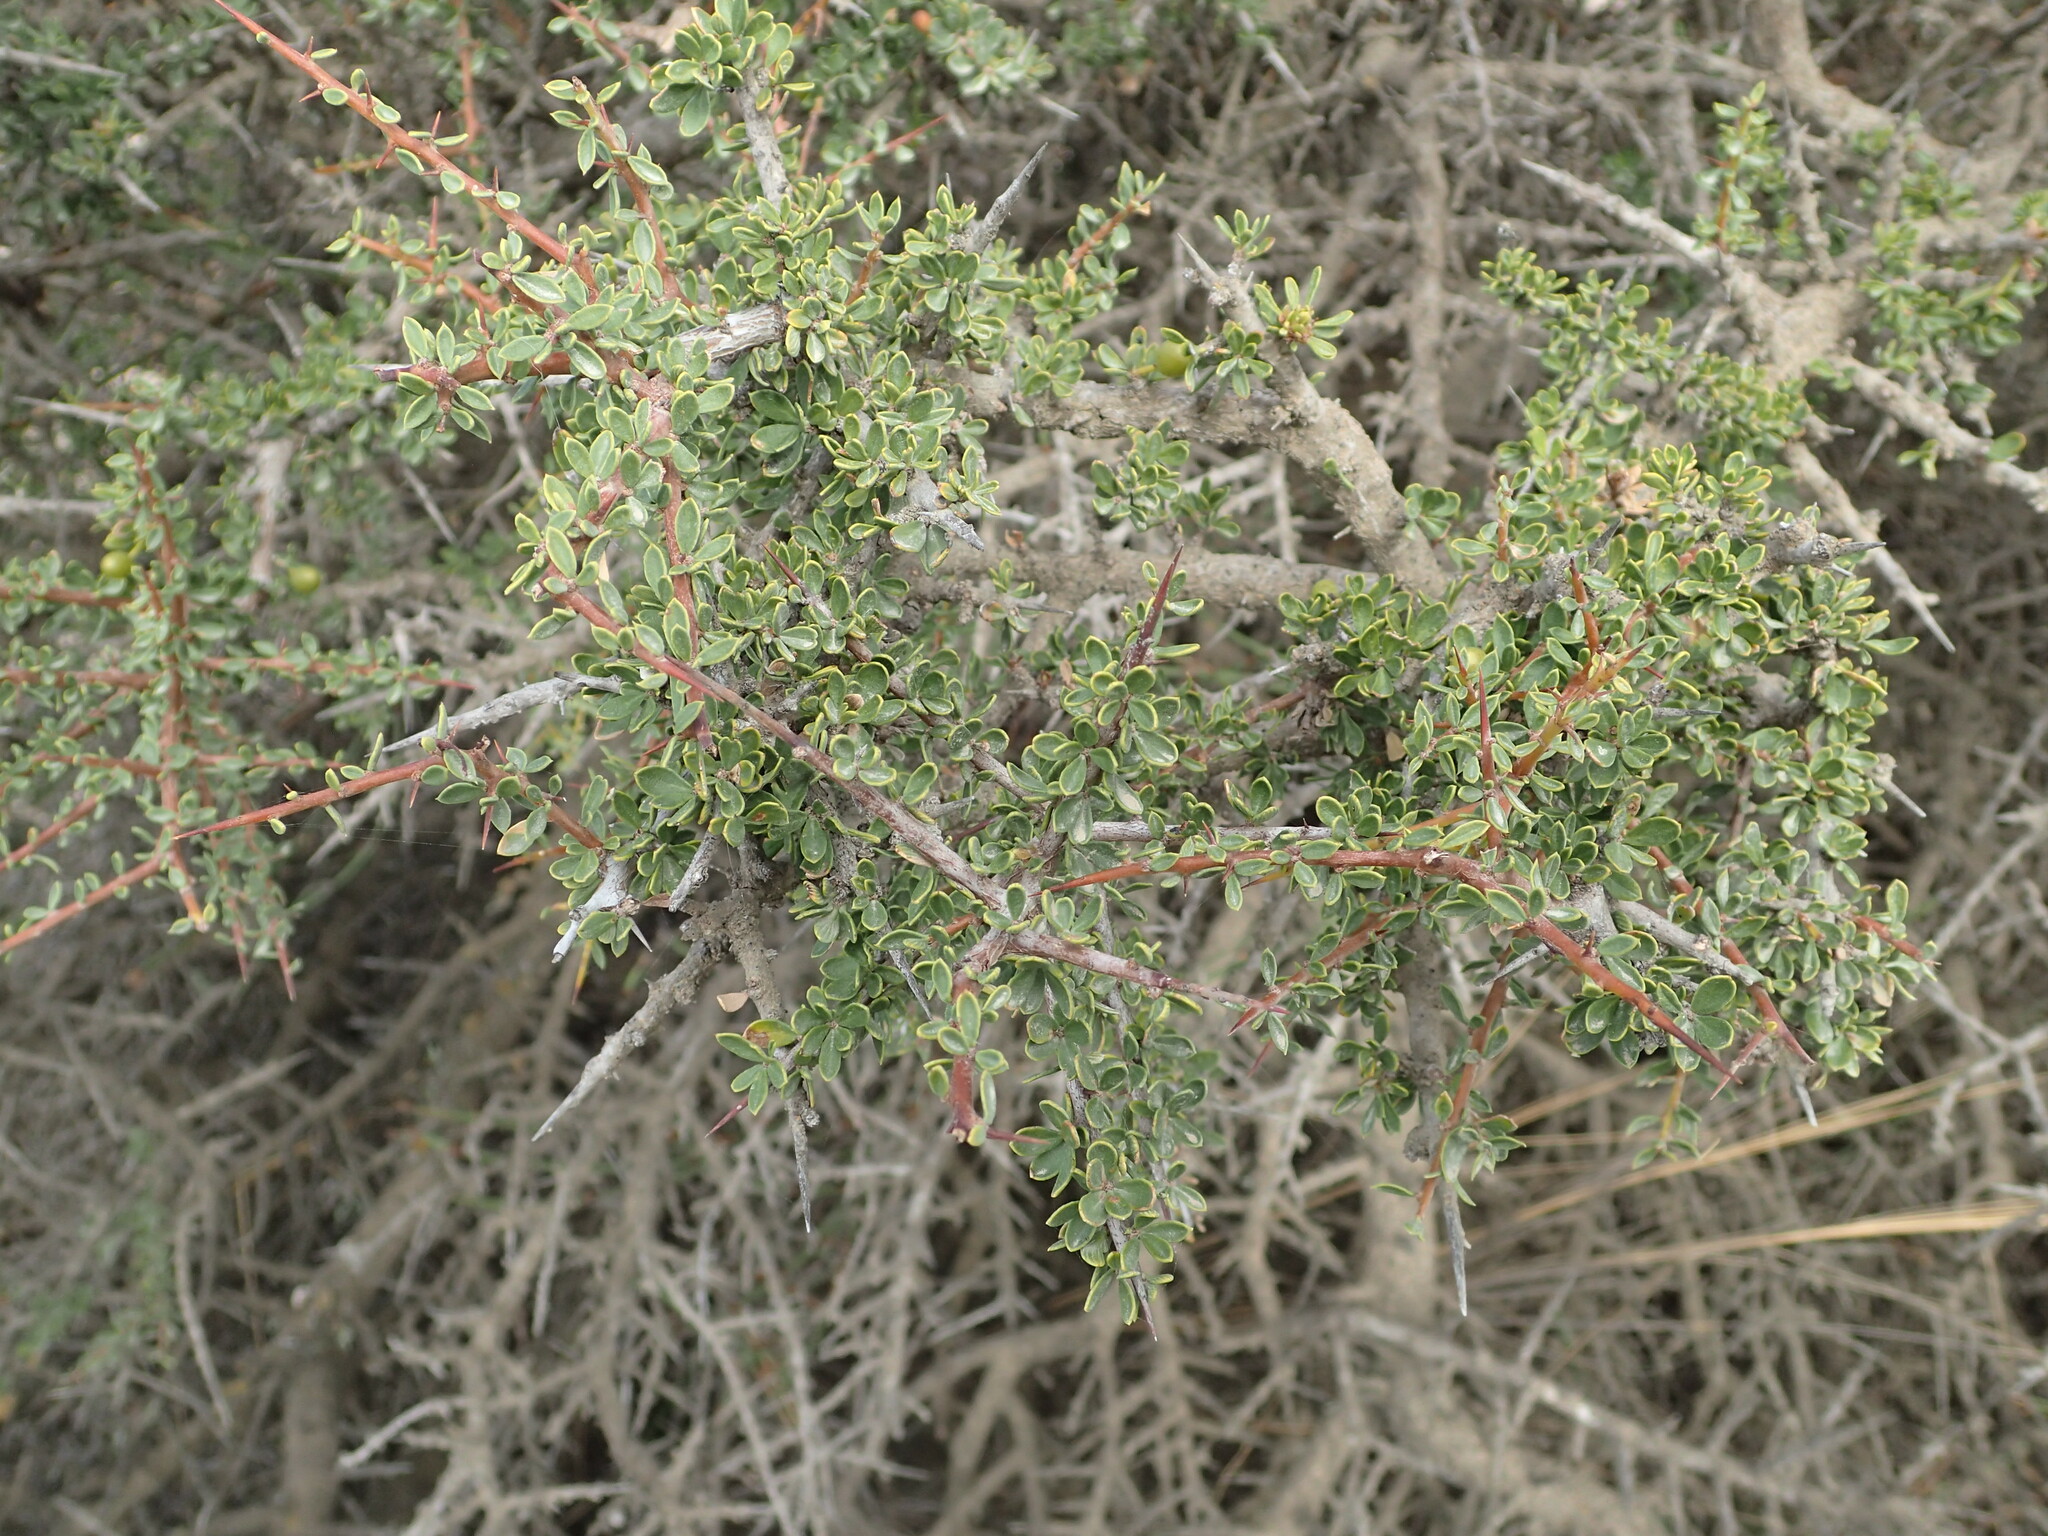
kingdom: Plantae
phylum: Tracheophyta
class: Magnoliopsida
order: Rosales
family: Rhamnaceae
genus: Condalia
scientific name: Condalia microphylla
